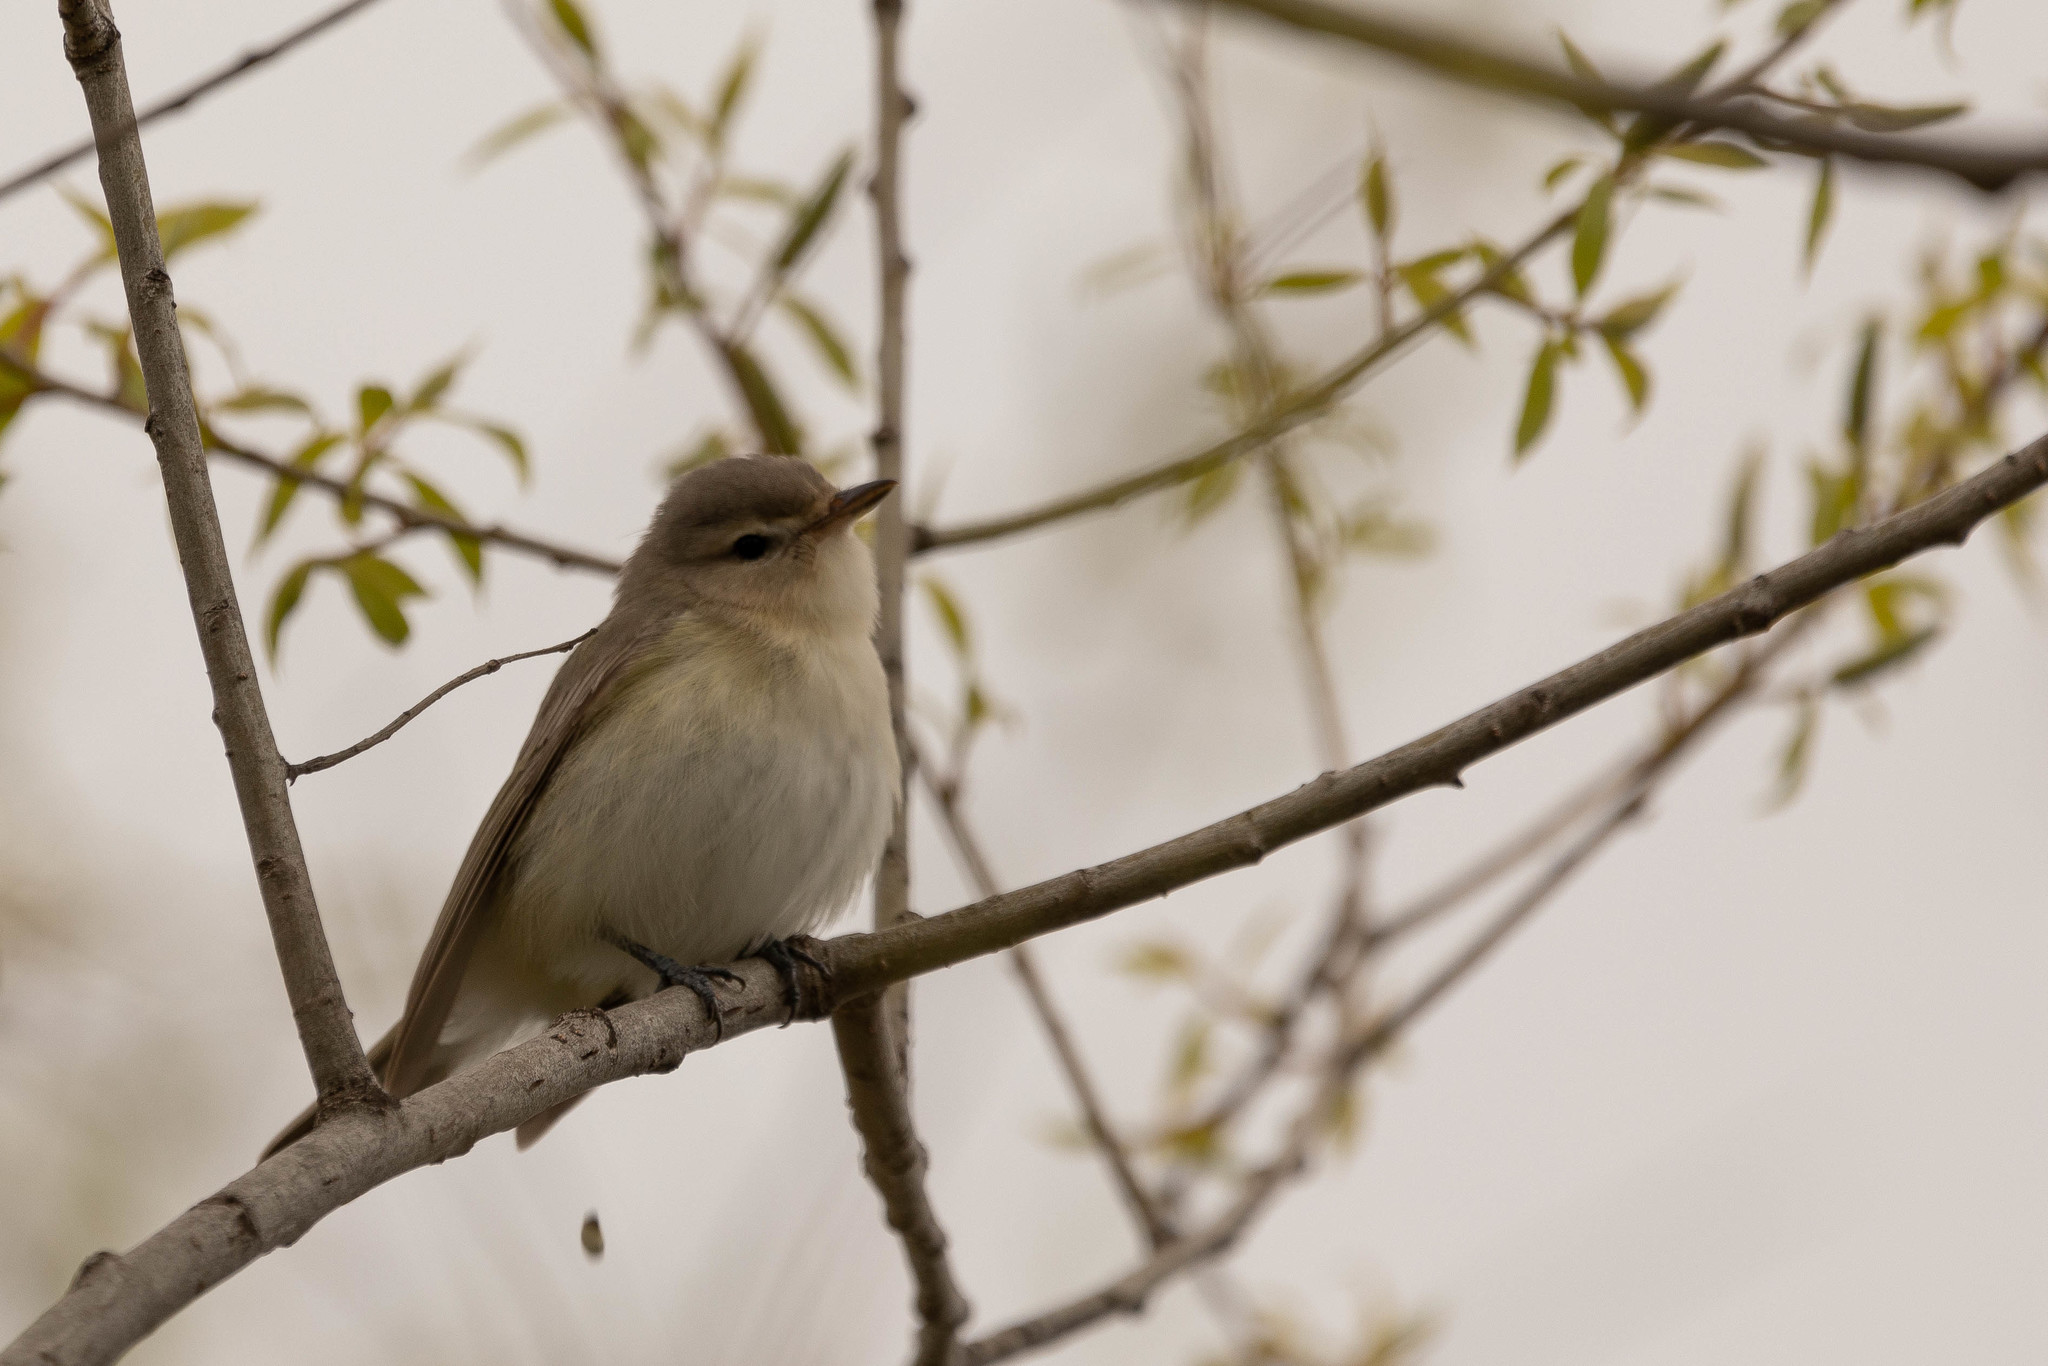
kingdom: Animalia
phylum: Chordata
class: Aves
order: Passeriformes
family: Vireonidae
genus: Vireo
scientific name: Vireo gilvus
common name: Warbling vireo
